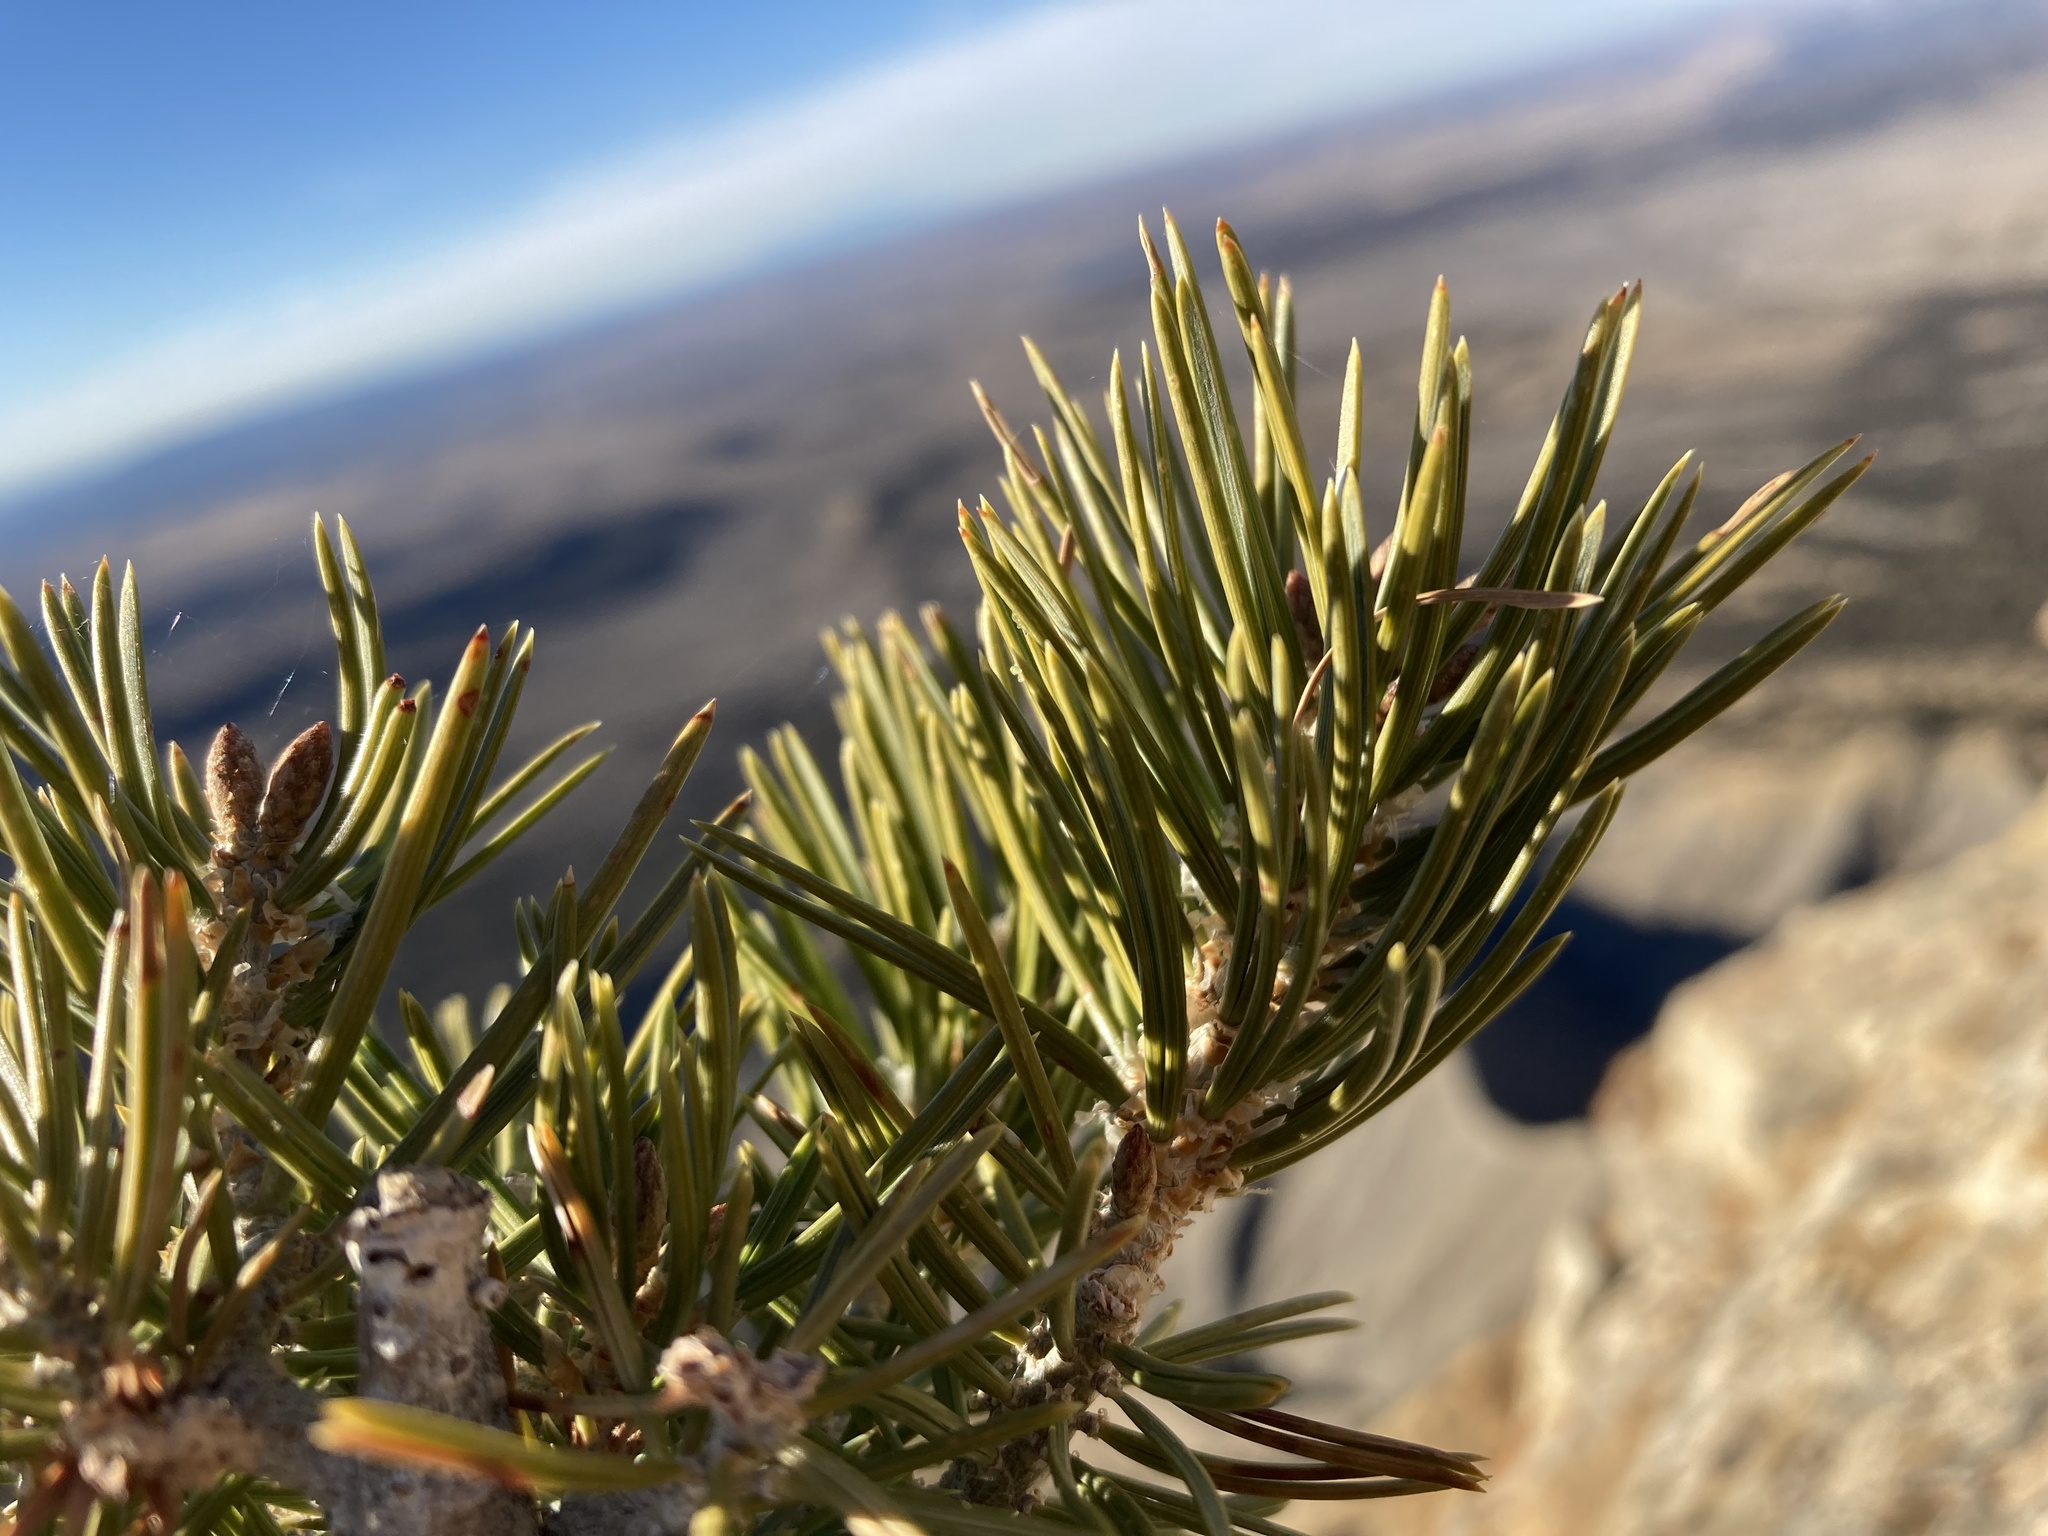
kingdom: Plantae
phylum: Tracheophyta
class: Pinopsida
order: Pinales
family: Pinaceae
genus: Pinus
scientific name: Pinus edulis
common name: Colorado pinyon
